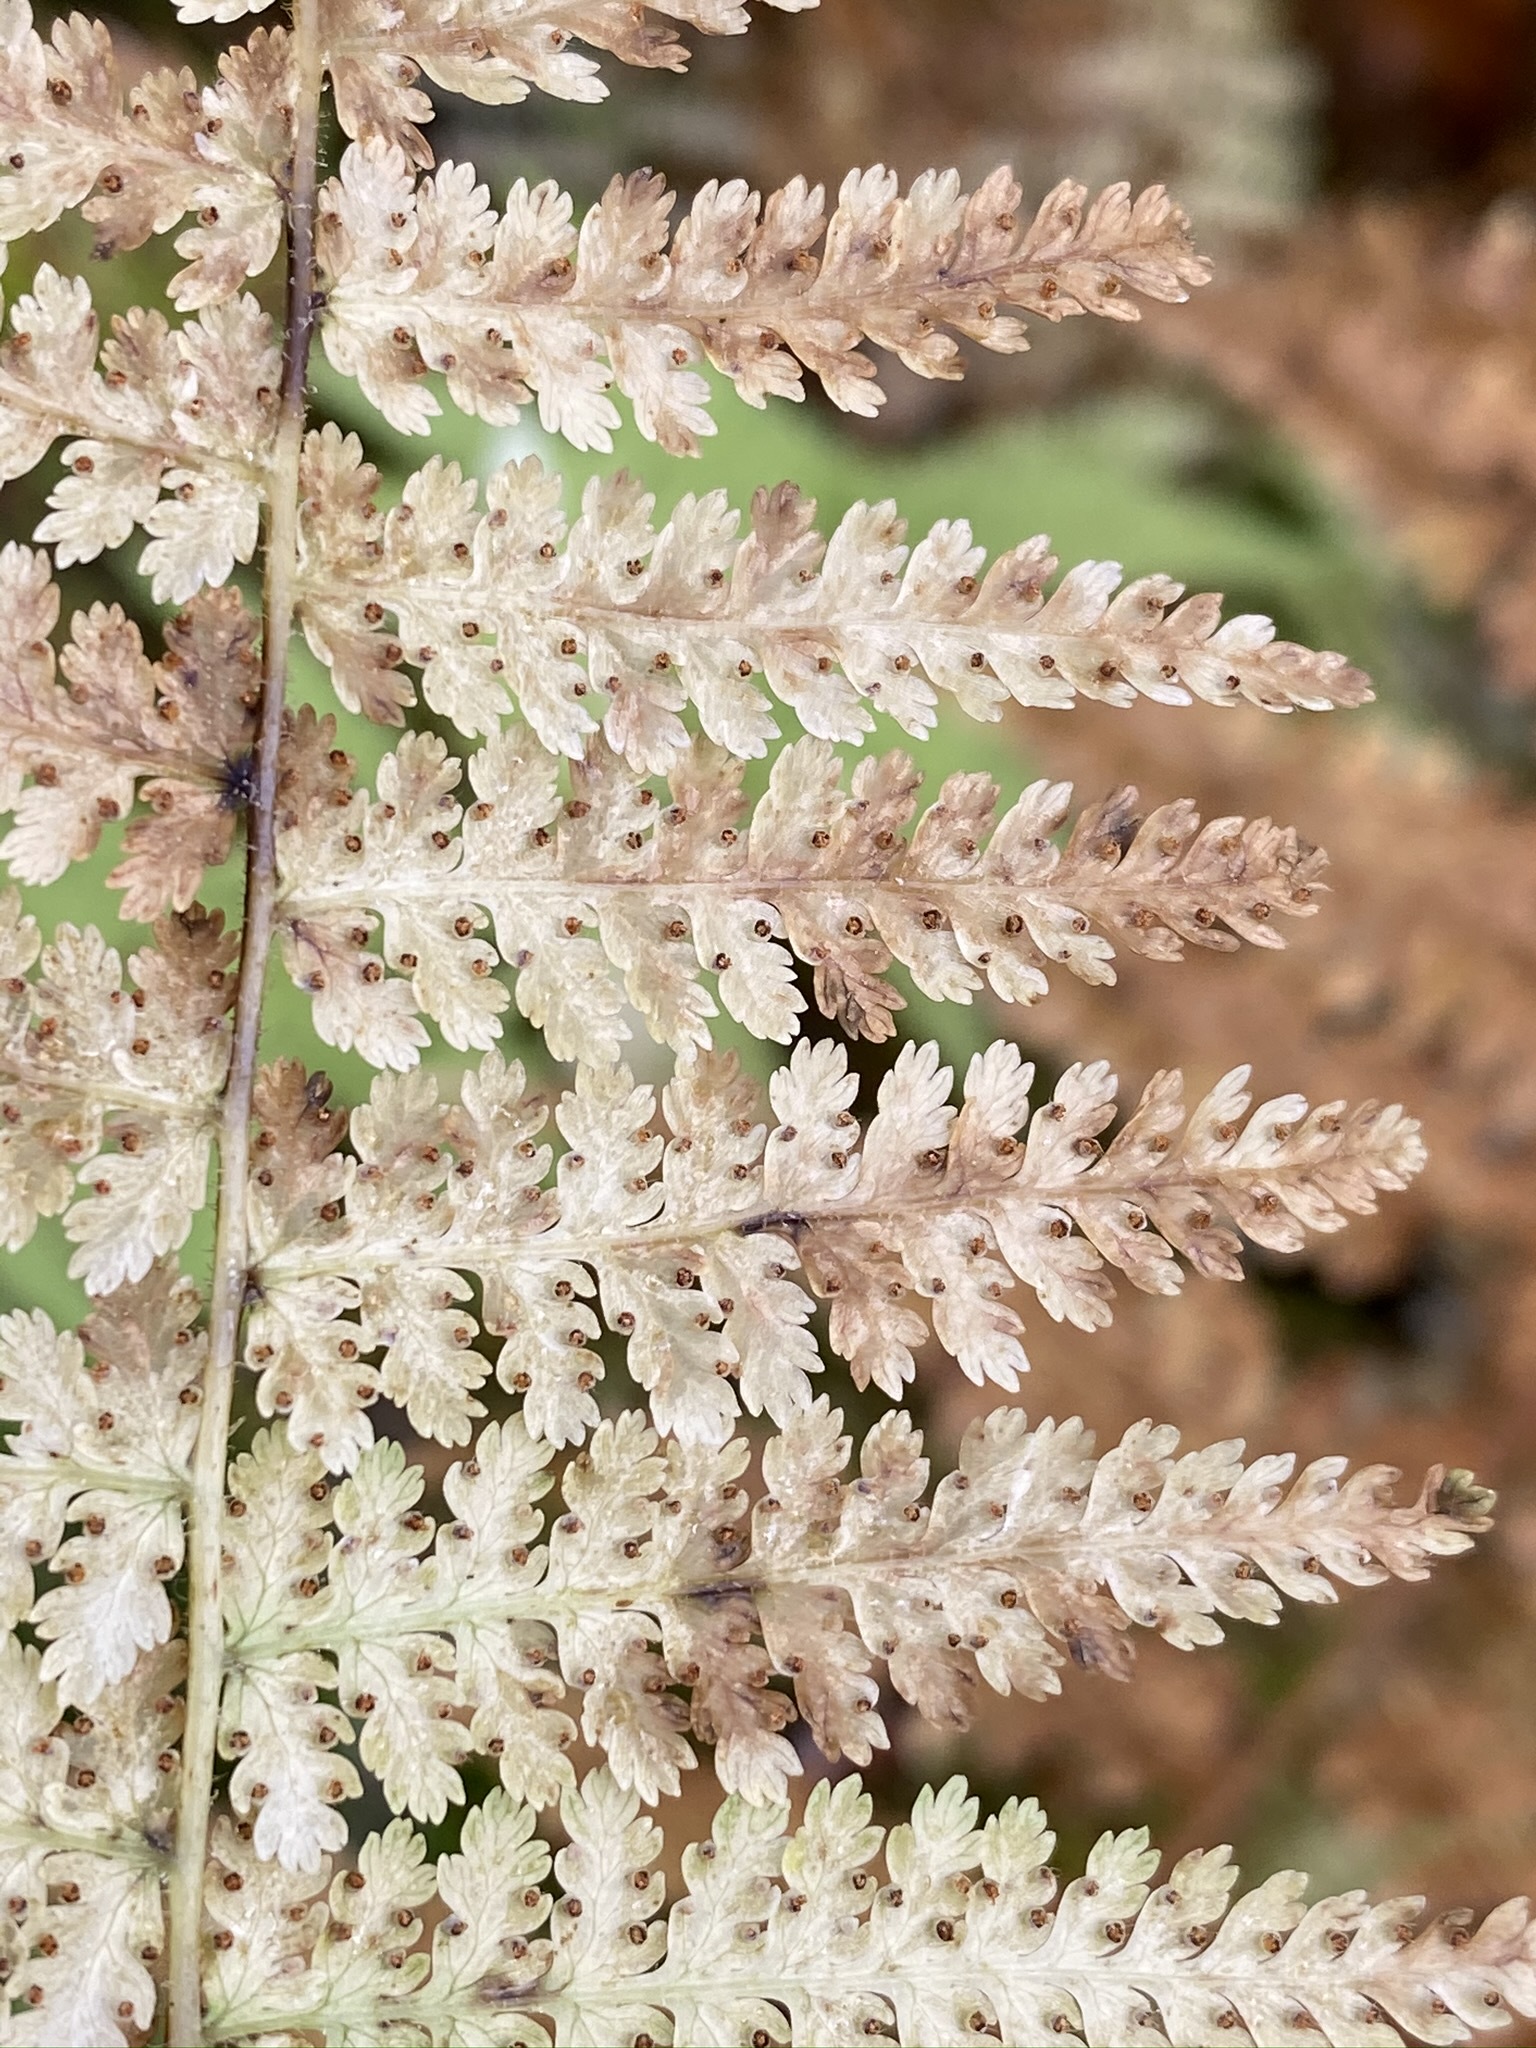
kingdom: Plantae
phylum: Tracheophyta
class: Polypodiopsida
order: Polypodiales
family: Dennstaedtiaceae
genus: Sitobolium
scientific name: Sitobolium punctilobum
